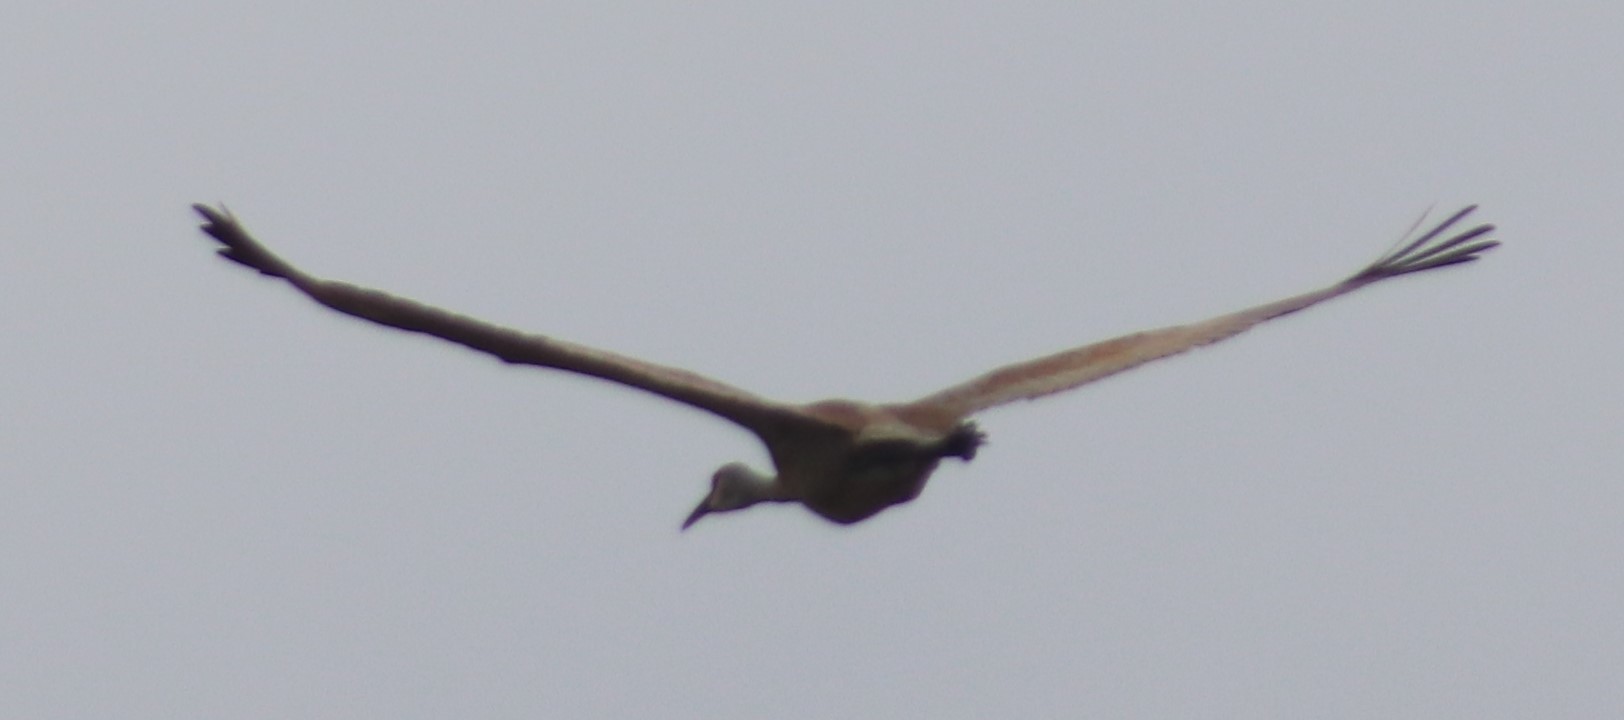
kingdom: Animalia
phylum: Chordata
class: Aves
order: Gruiformes
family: Gruidae
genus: Grus
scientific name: Grus canadensis
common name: Sandhill crane
